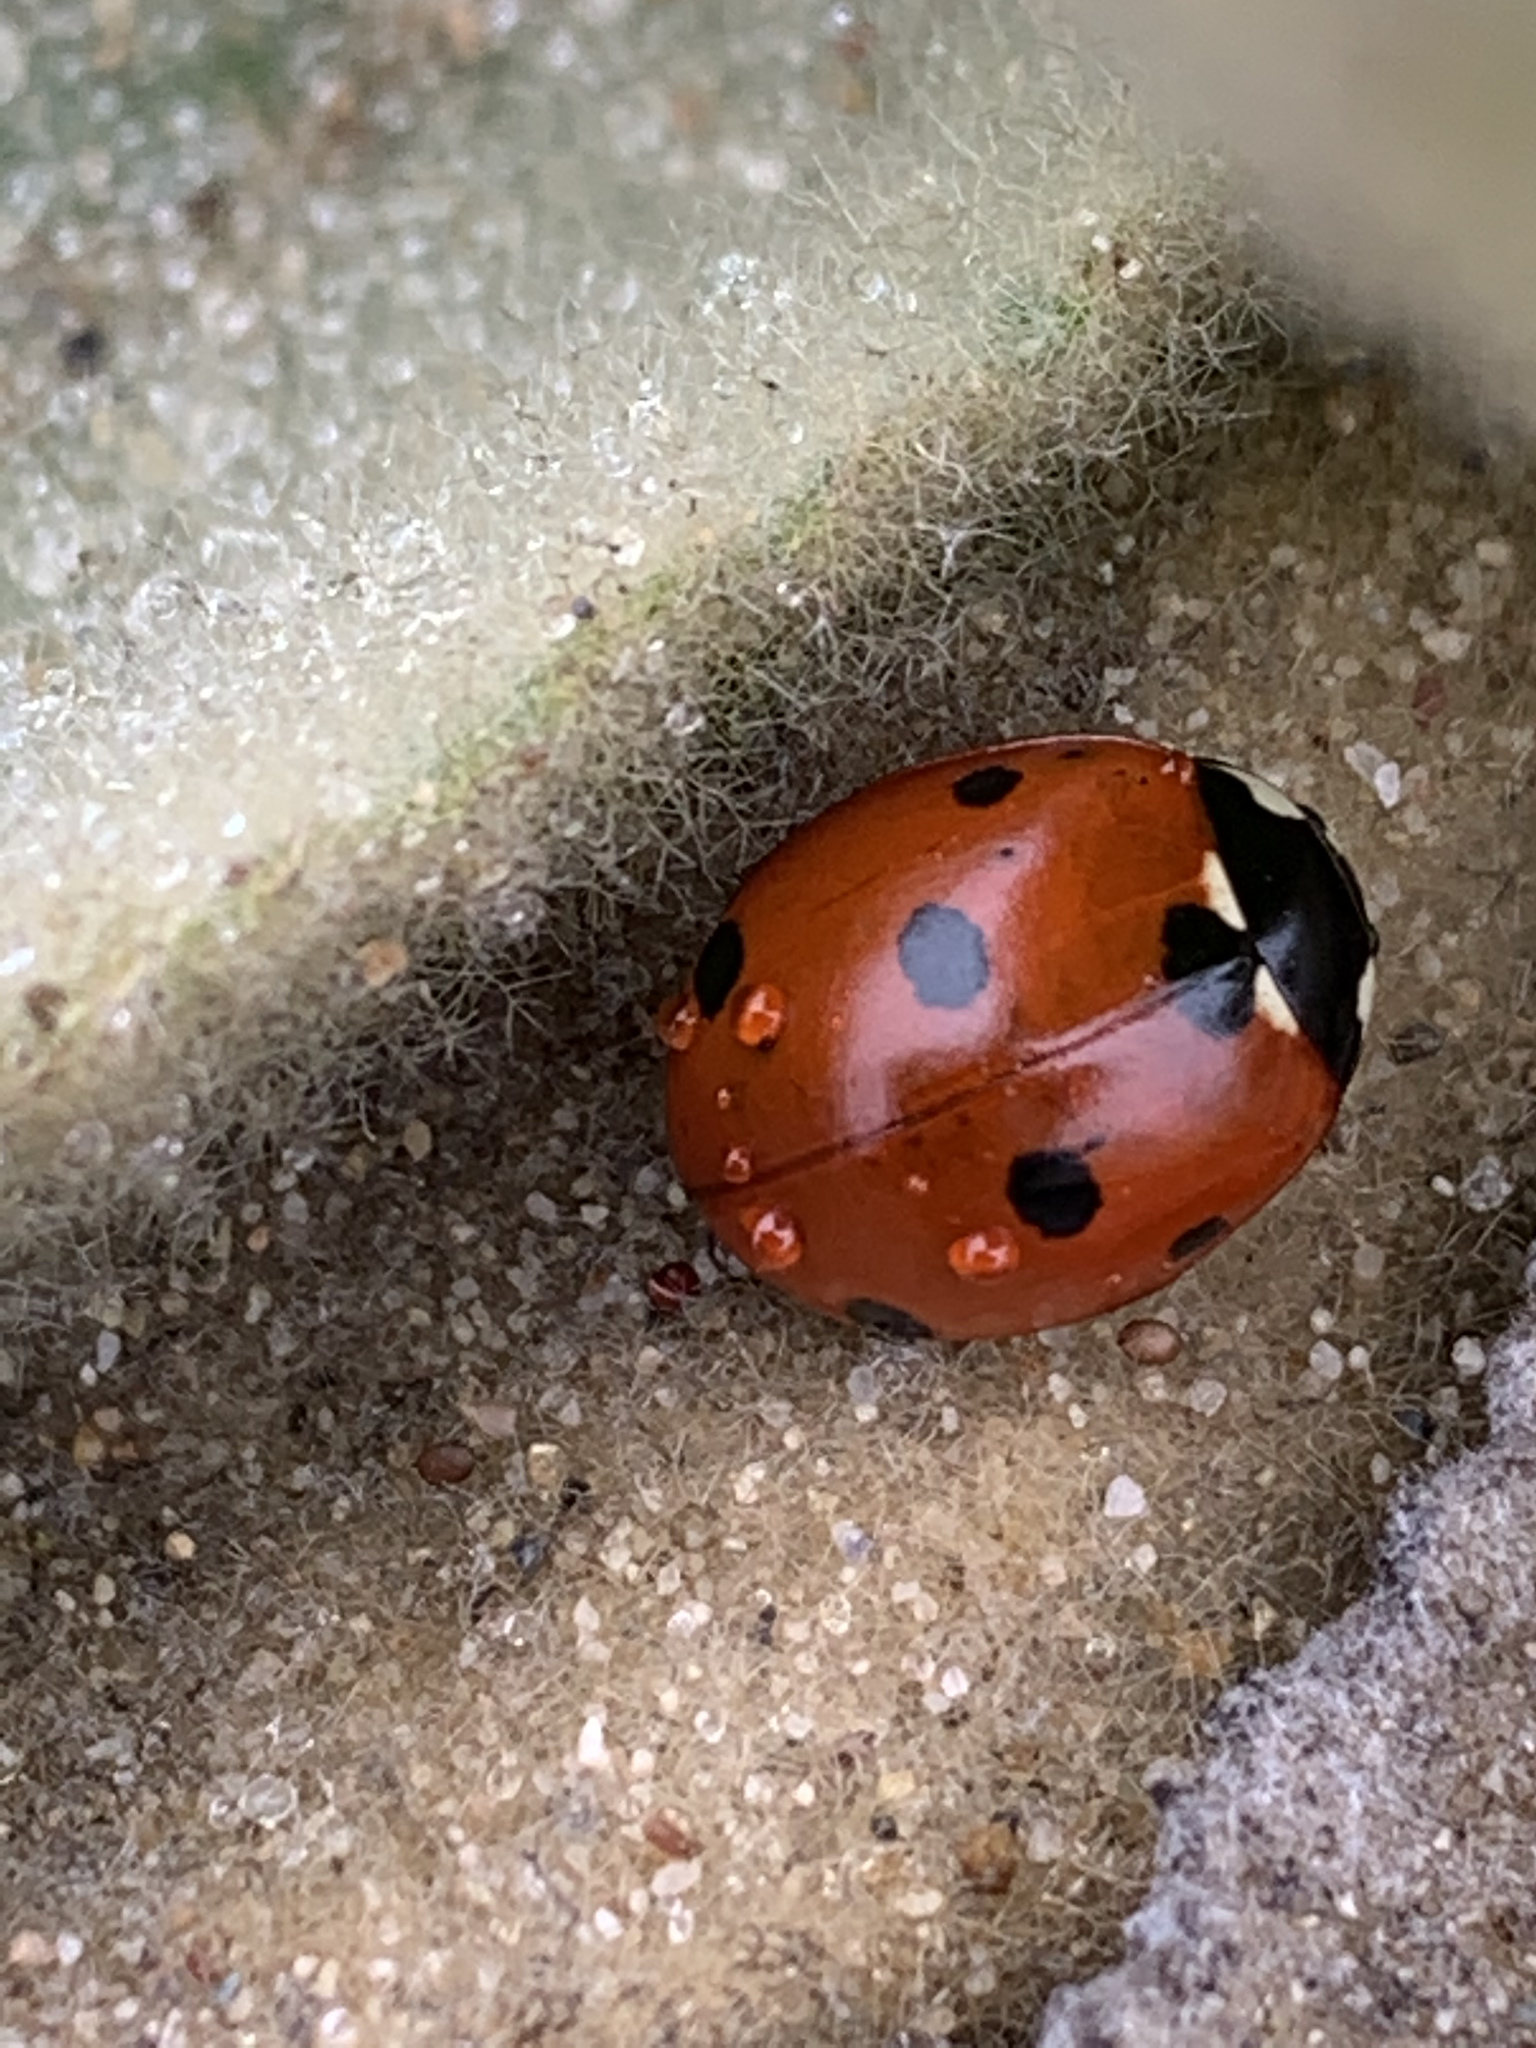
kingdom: Animalia
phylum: Arthropoda
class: Insecta
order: Coleoptera
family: Coccinellidae
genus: Coccinella
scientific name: Coccinella septempunctata
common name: Sevenspotted lady beetle
